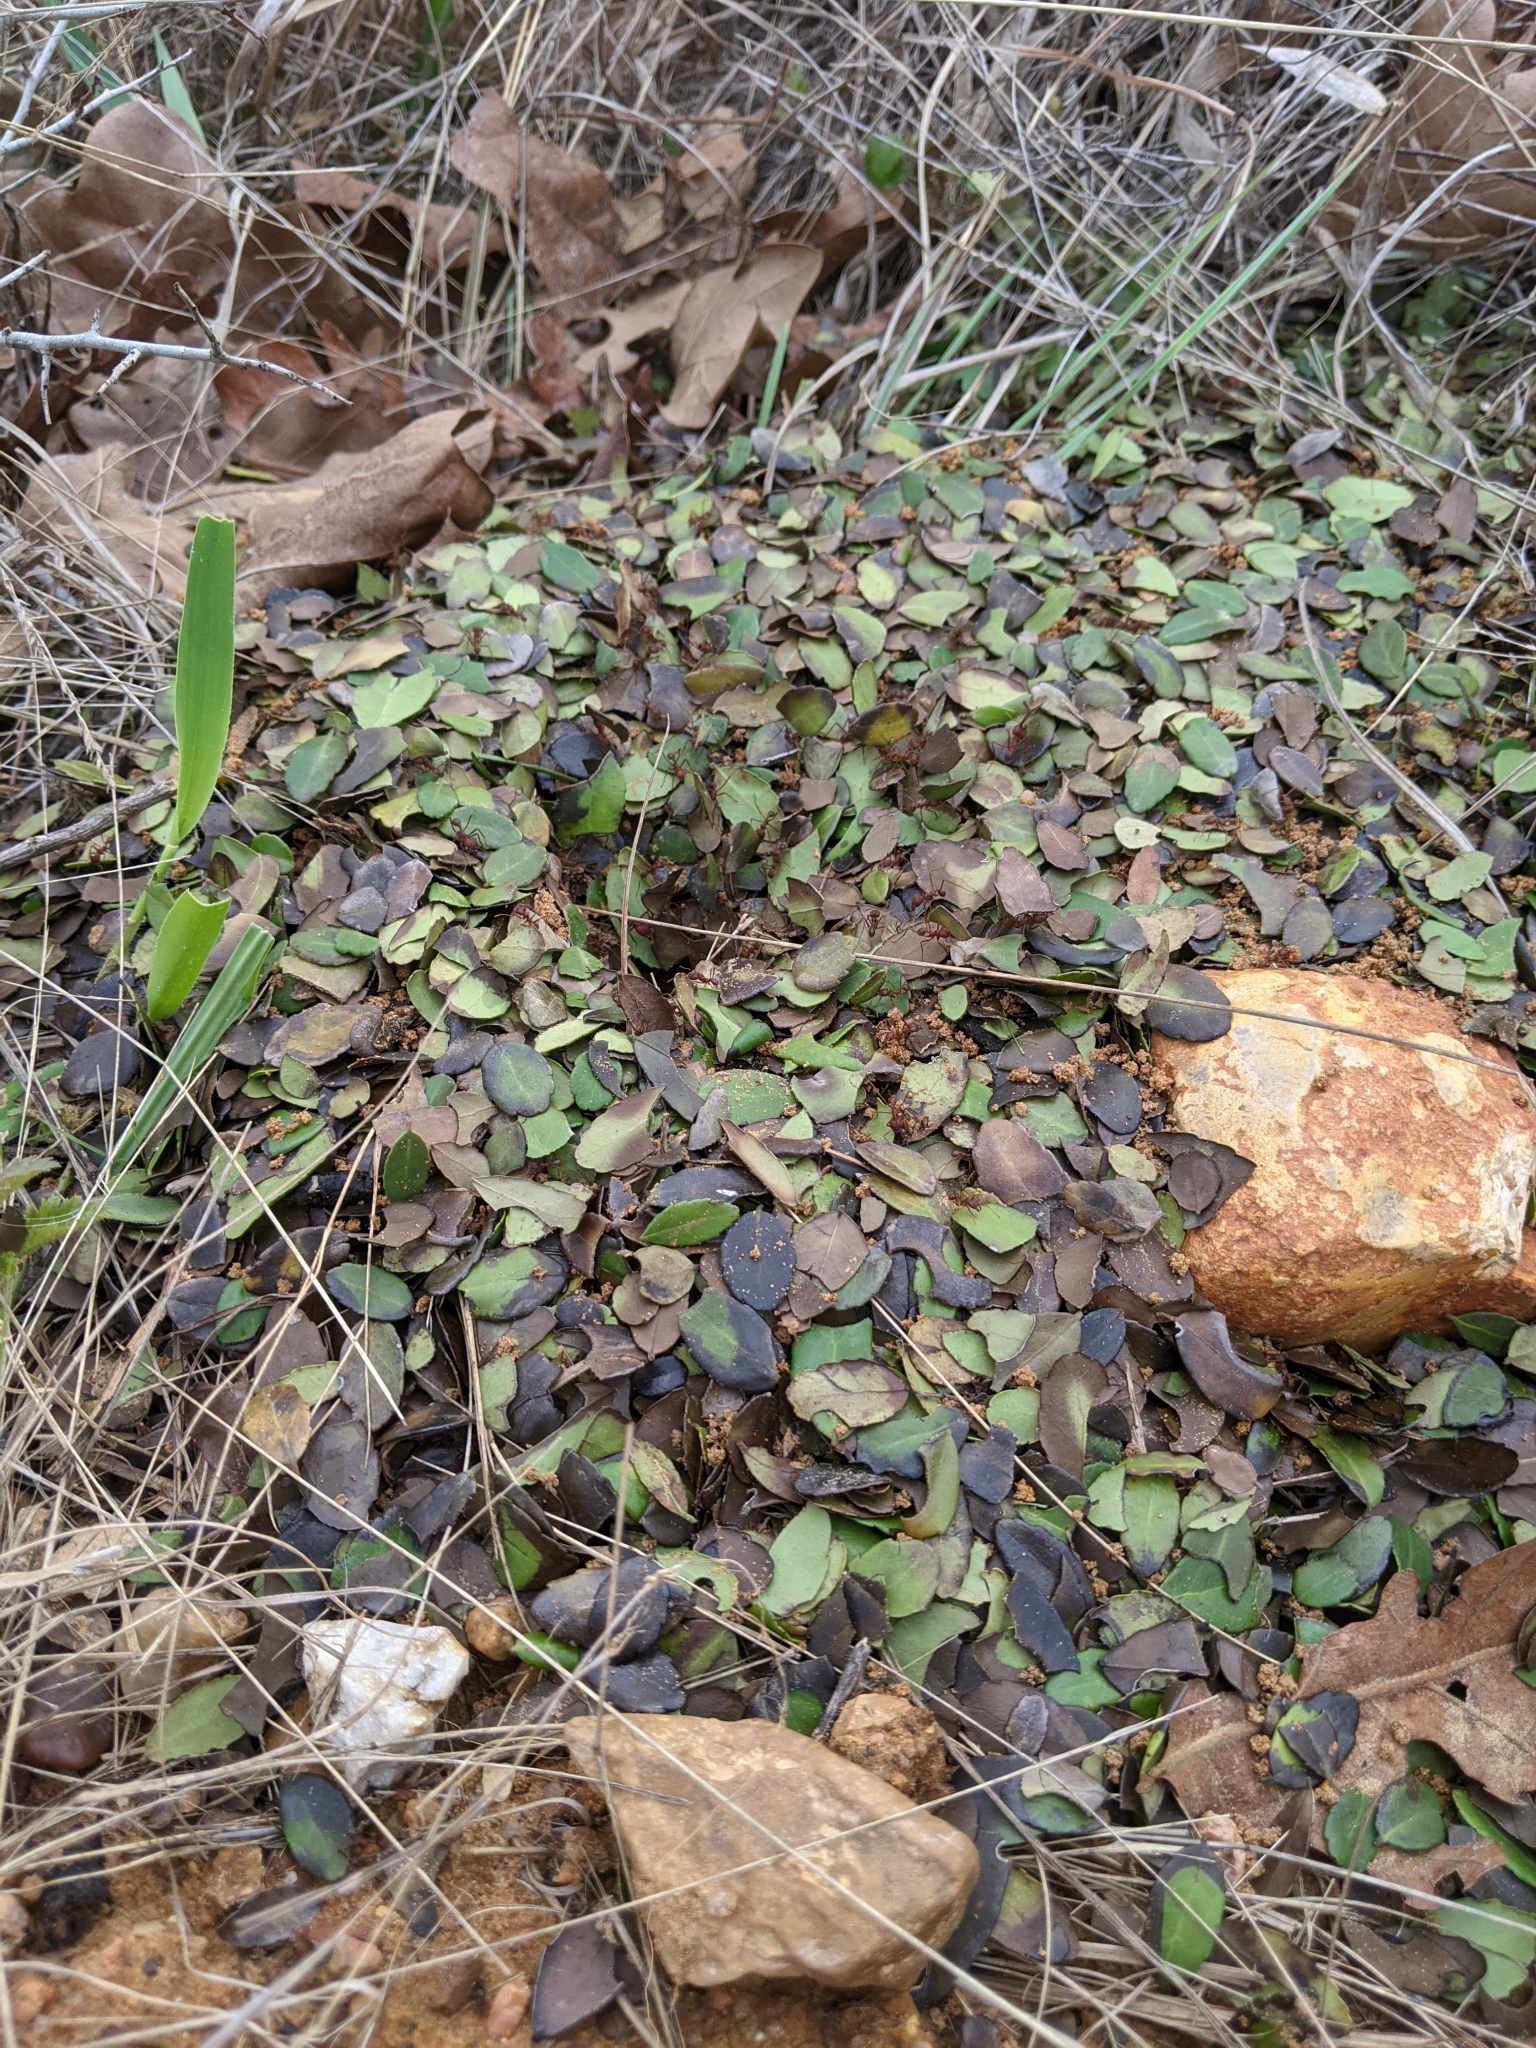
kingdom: Animalia
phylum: Arthropoda
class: Insecta
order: Hymenoptera
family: Formicidae
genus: Atta
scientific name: Atta texana
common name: Texas leafcutting ant
